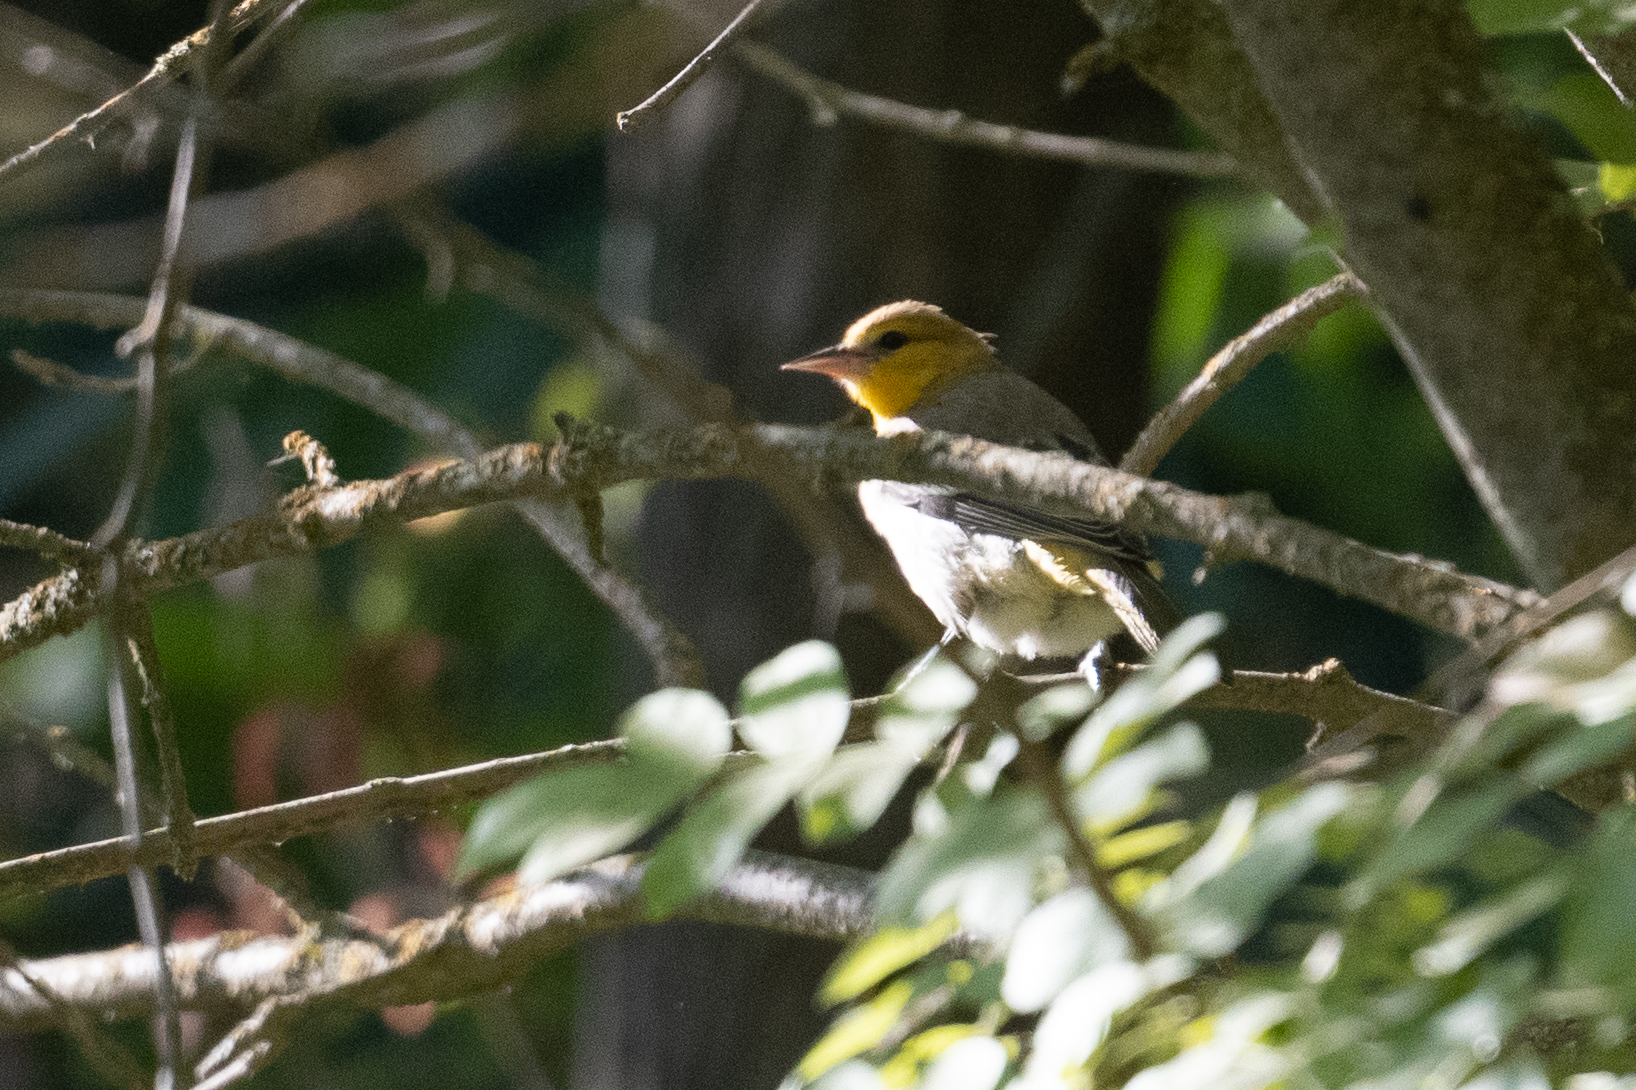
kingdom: Animalia
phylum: Chordata
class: Aves
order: Passeriformes
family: Icteridae
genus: Icterus
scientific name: Icterus bullockii
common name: Bullock's oriole
